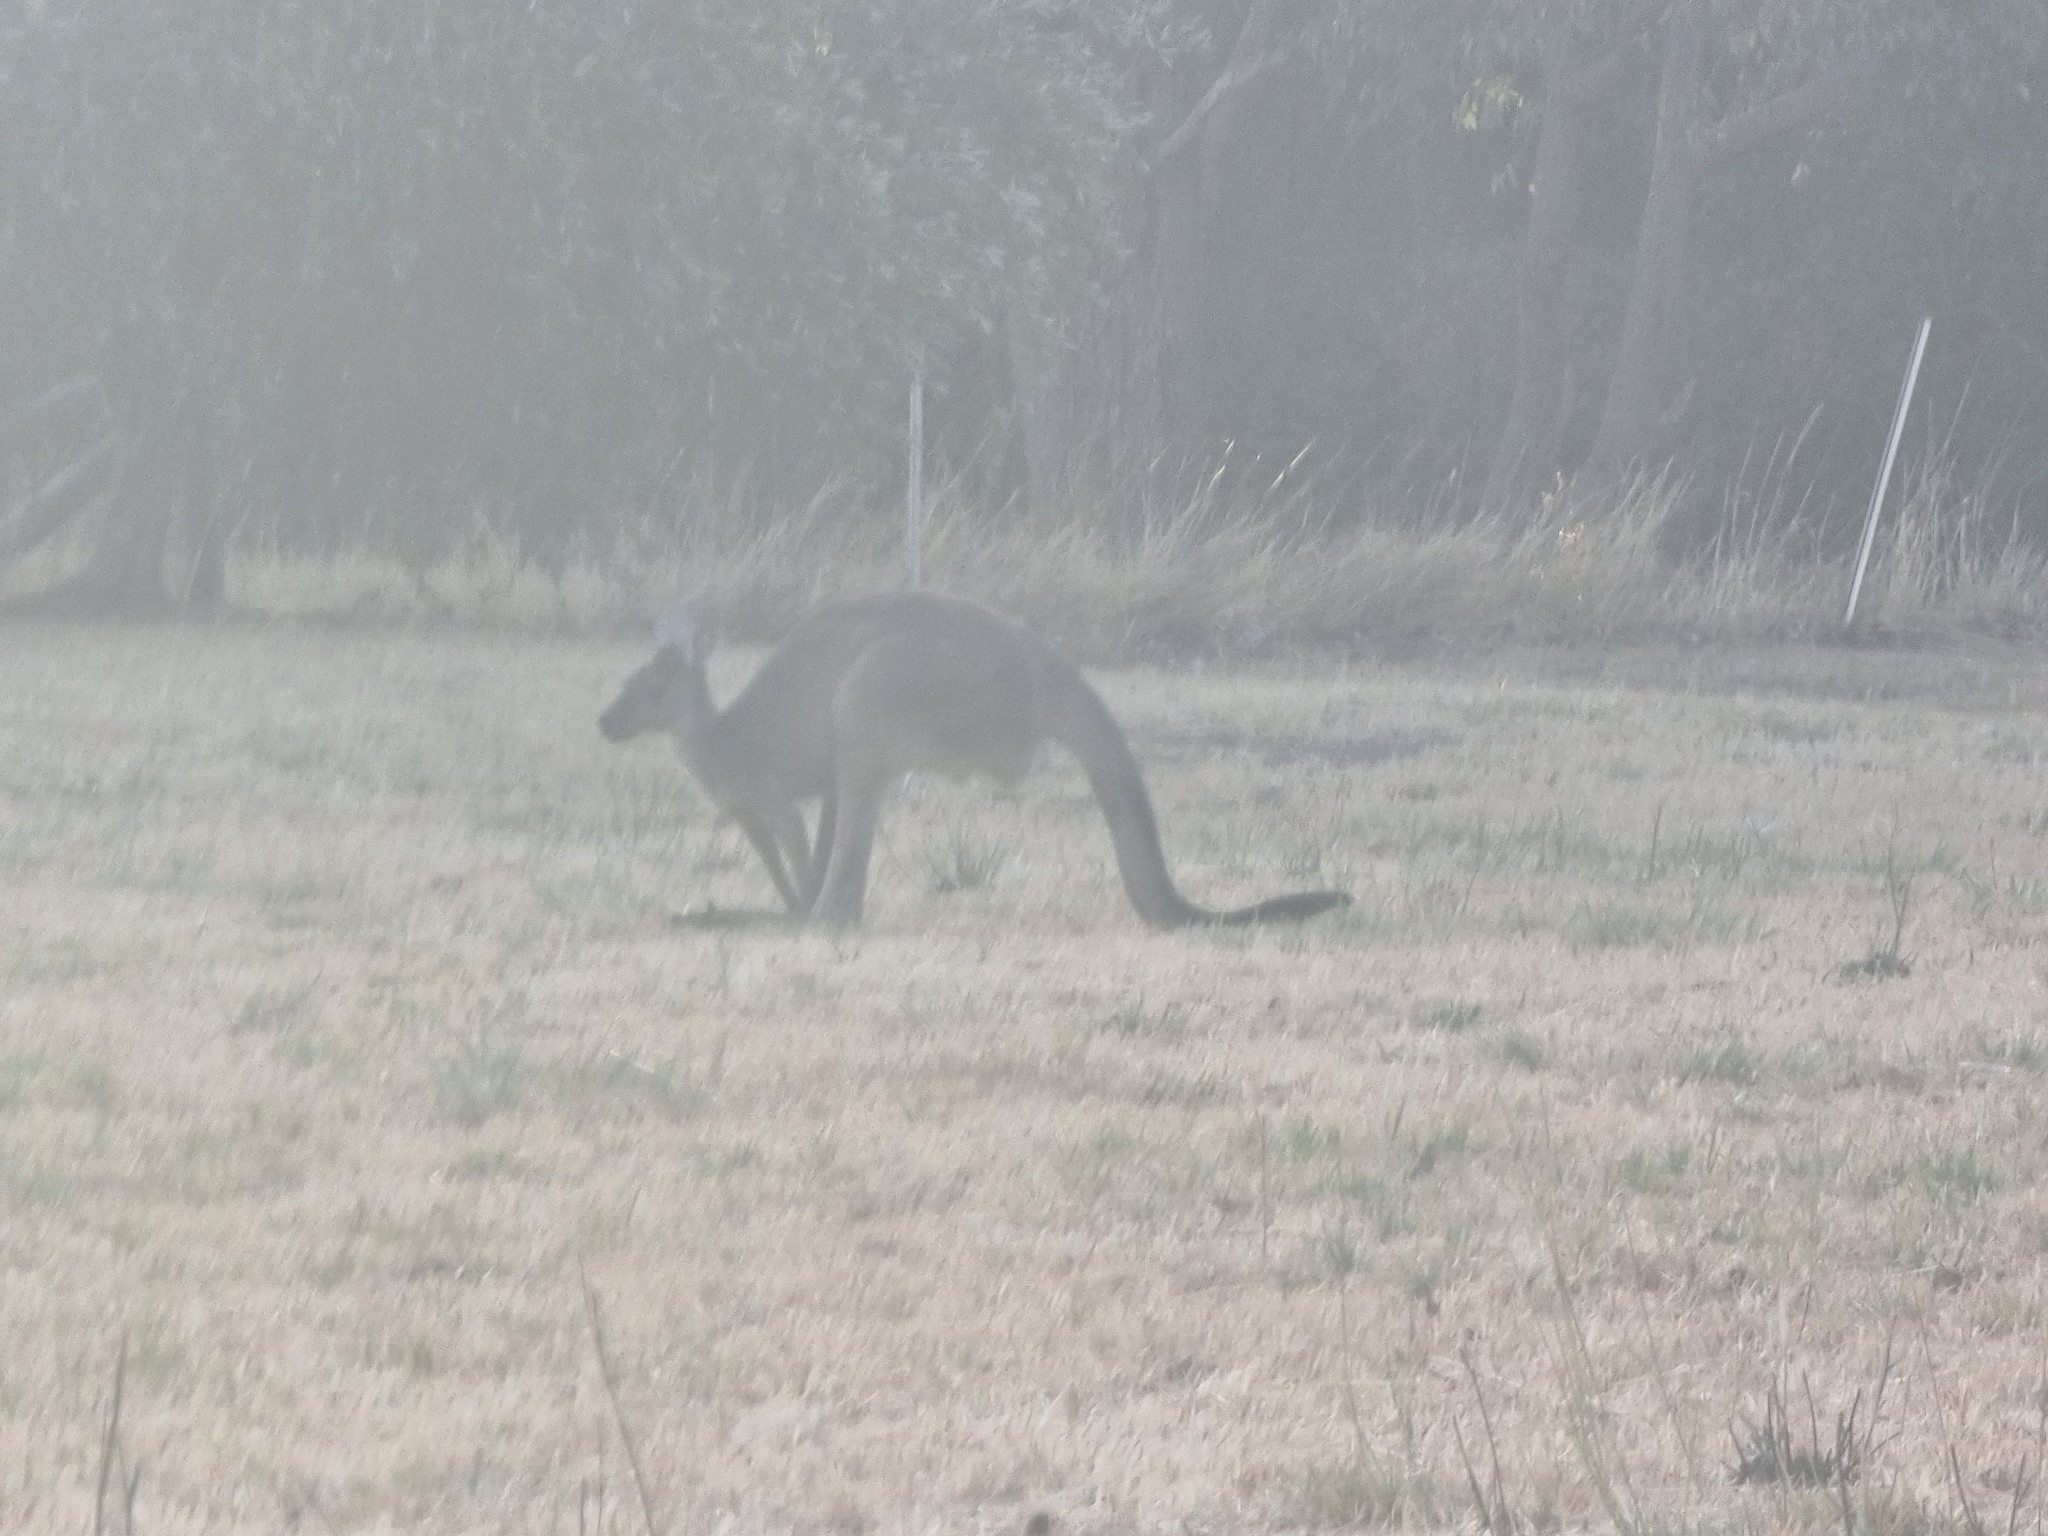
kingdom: Animalia
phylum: Chordata
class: Mammalia
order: Diprotodontia
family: Macropodidae
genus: Macropus
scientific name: Macropus fuliginosus
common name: Western grey kangaroo
